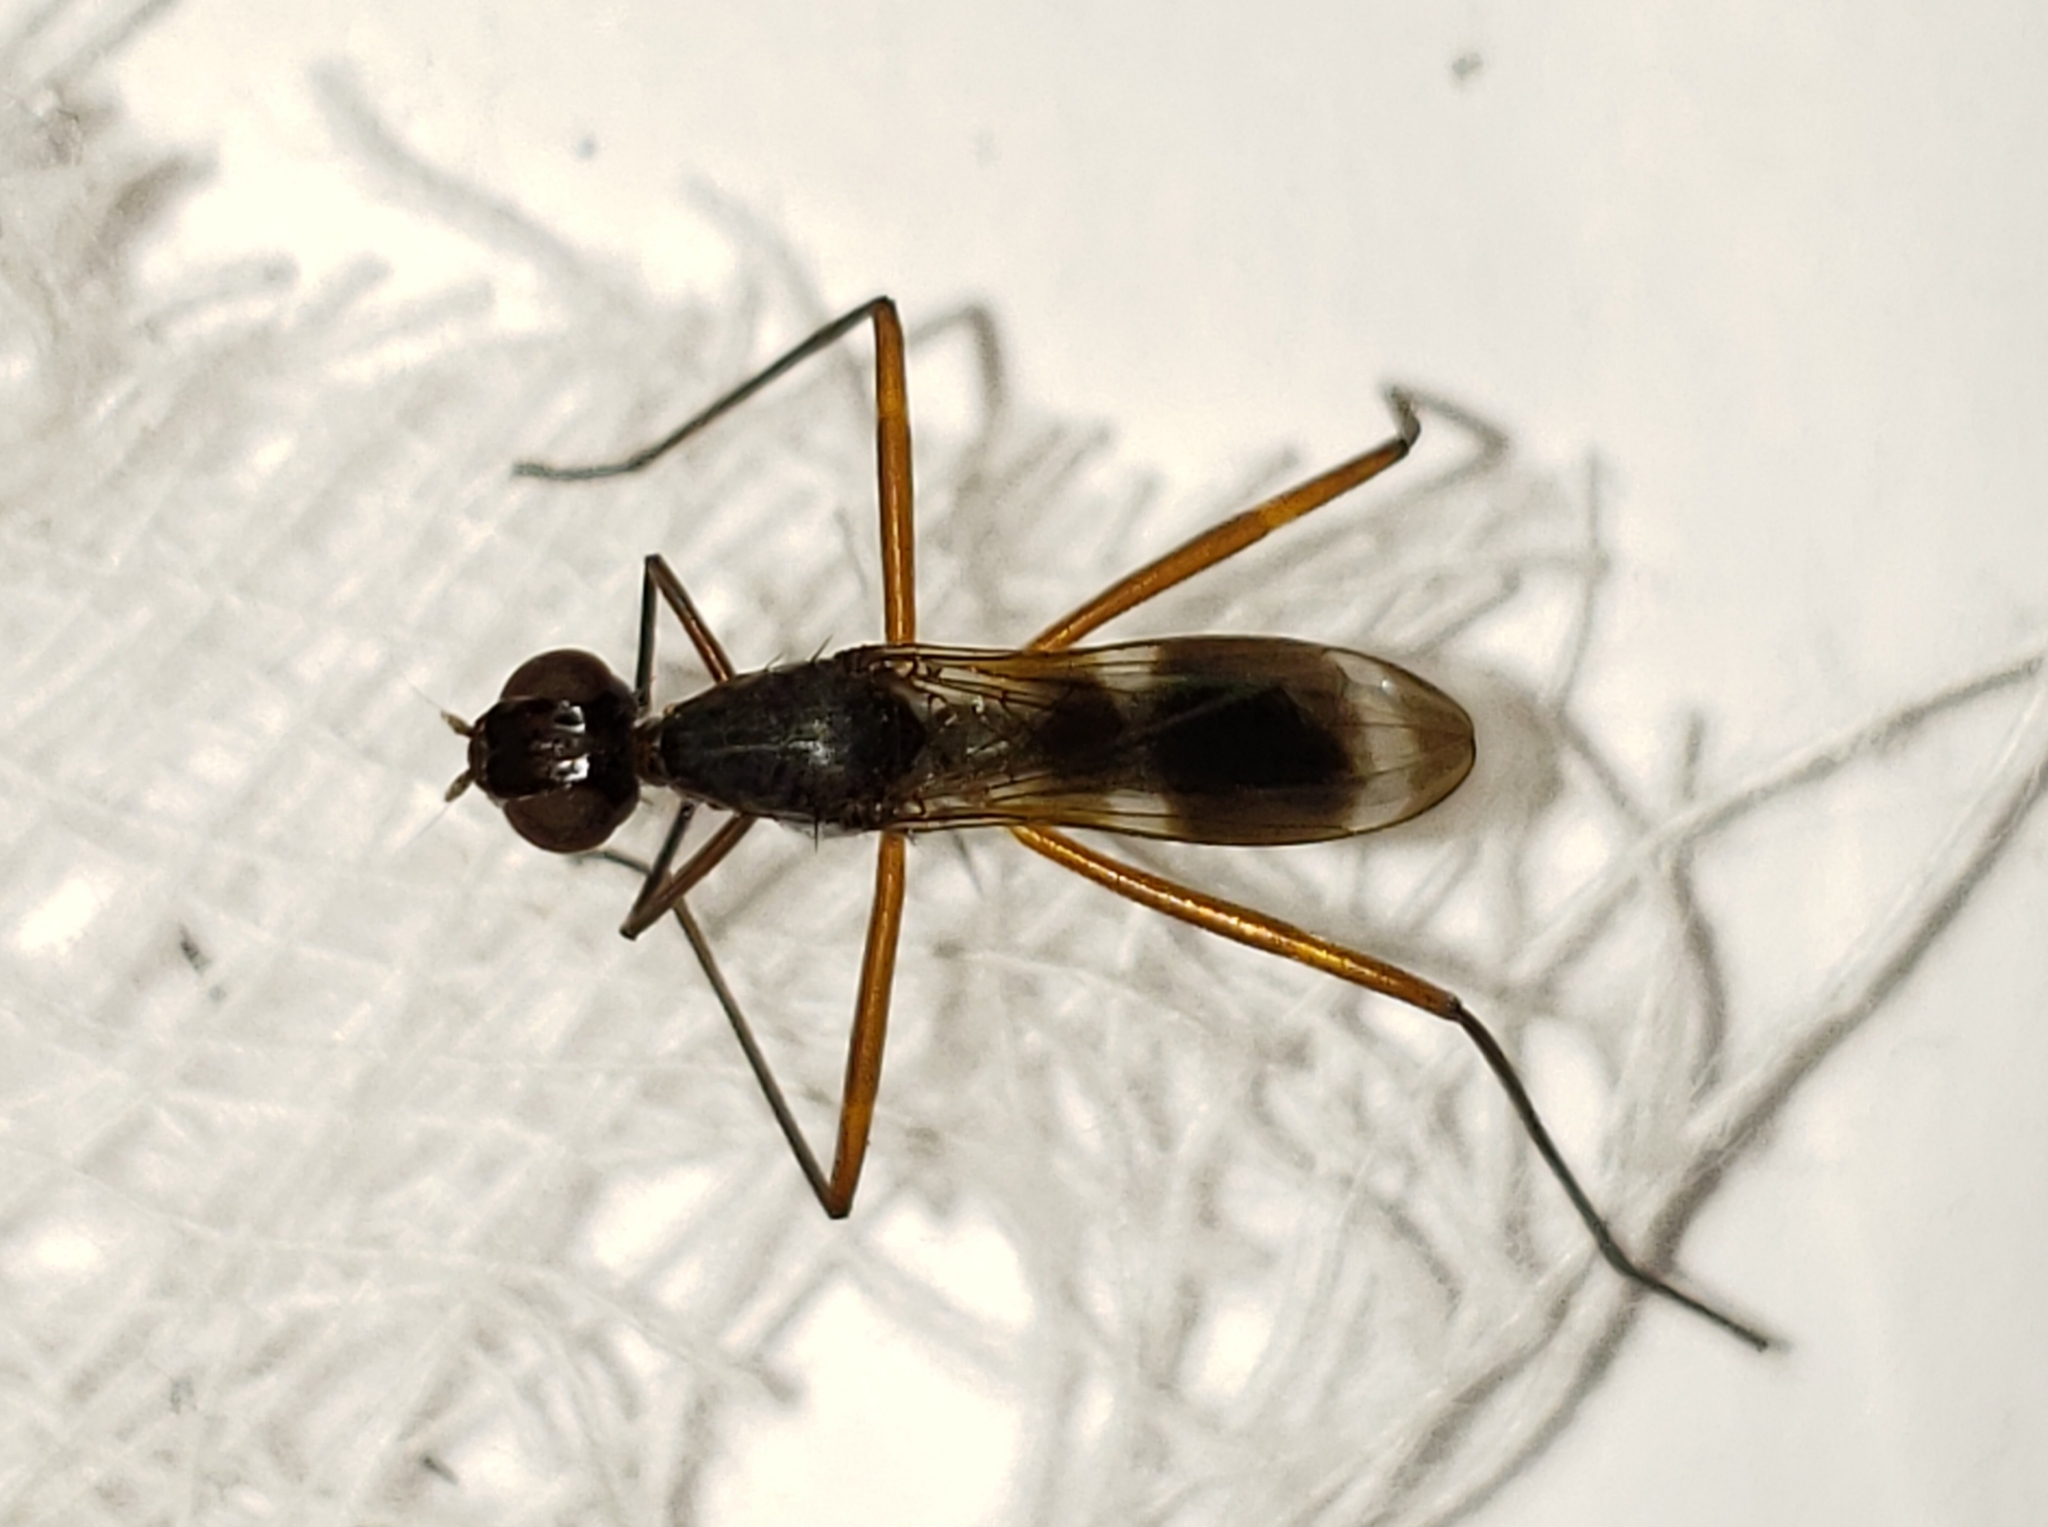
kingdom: Animalia
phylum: Arthropoda
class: Insecta
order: Diptera
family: Micropezidae
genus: Taeniaptera
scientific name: Taeniaptera trivittata
